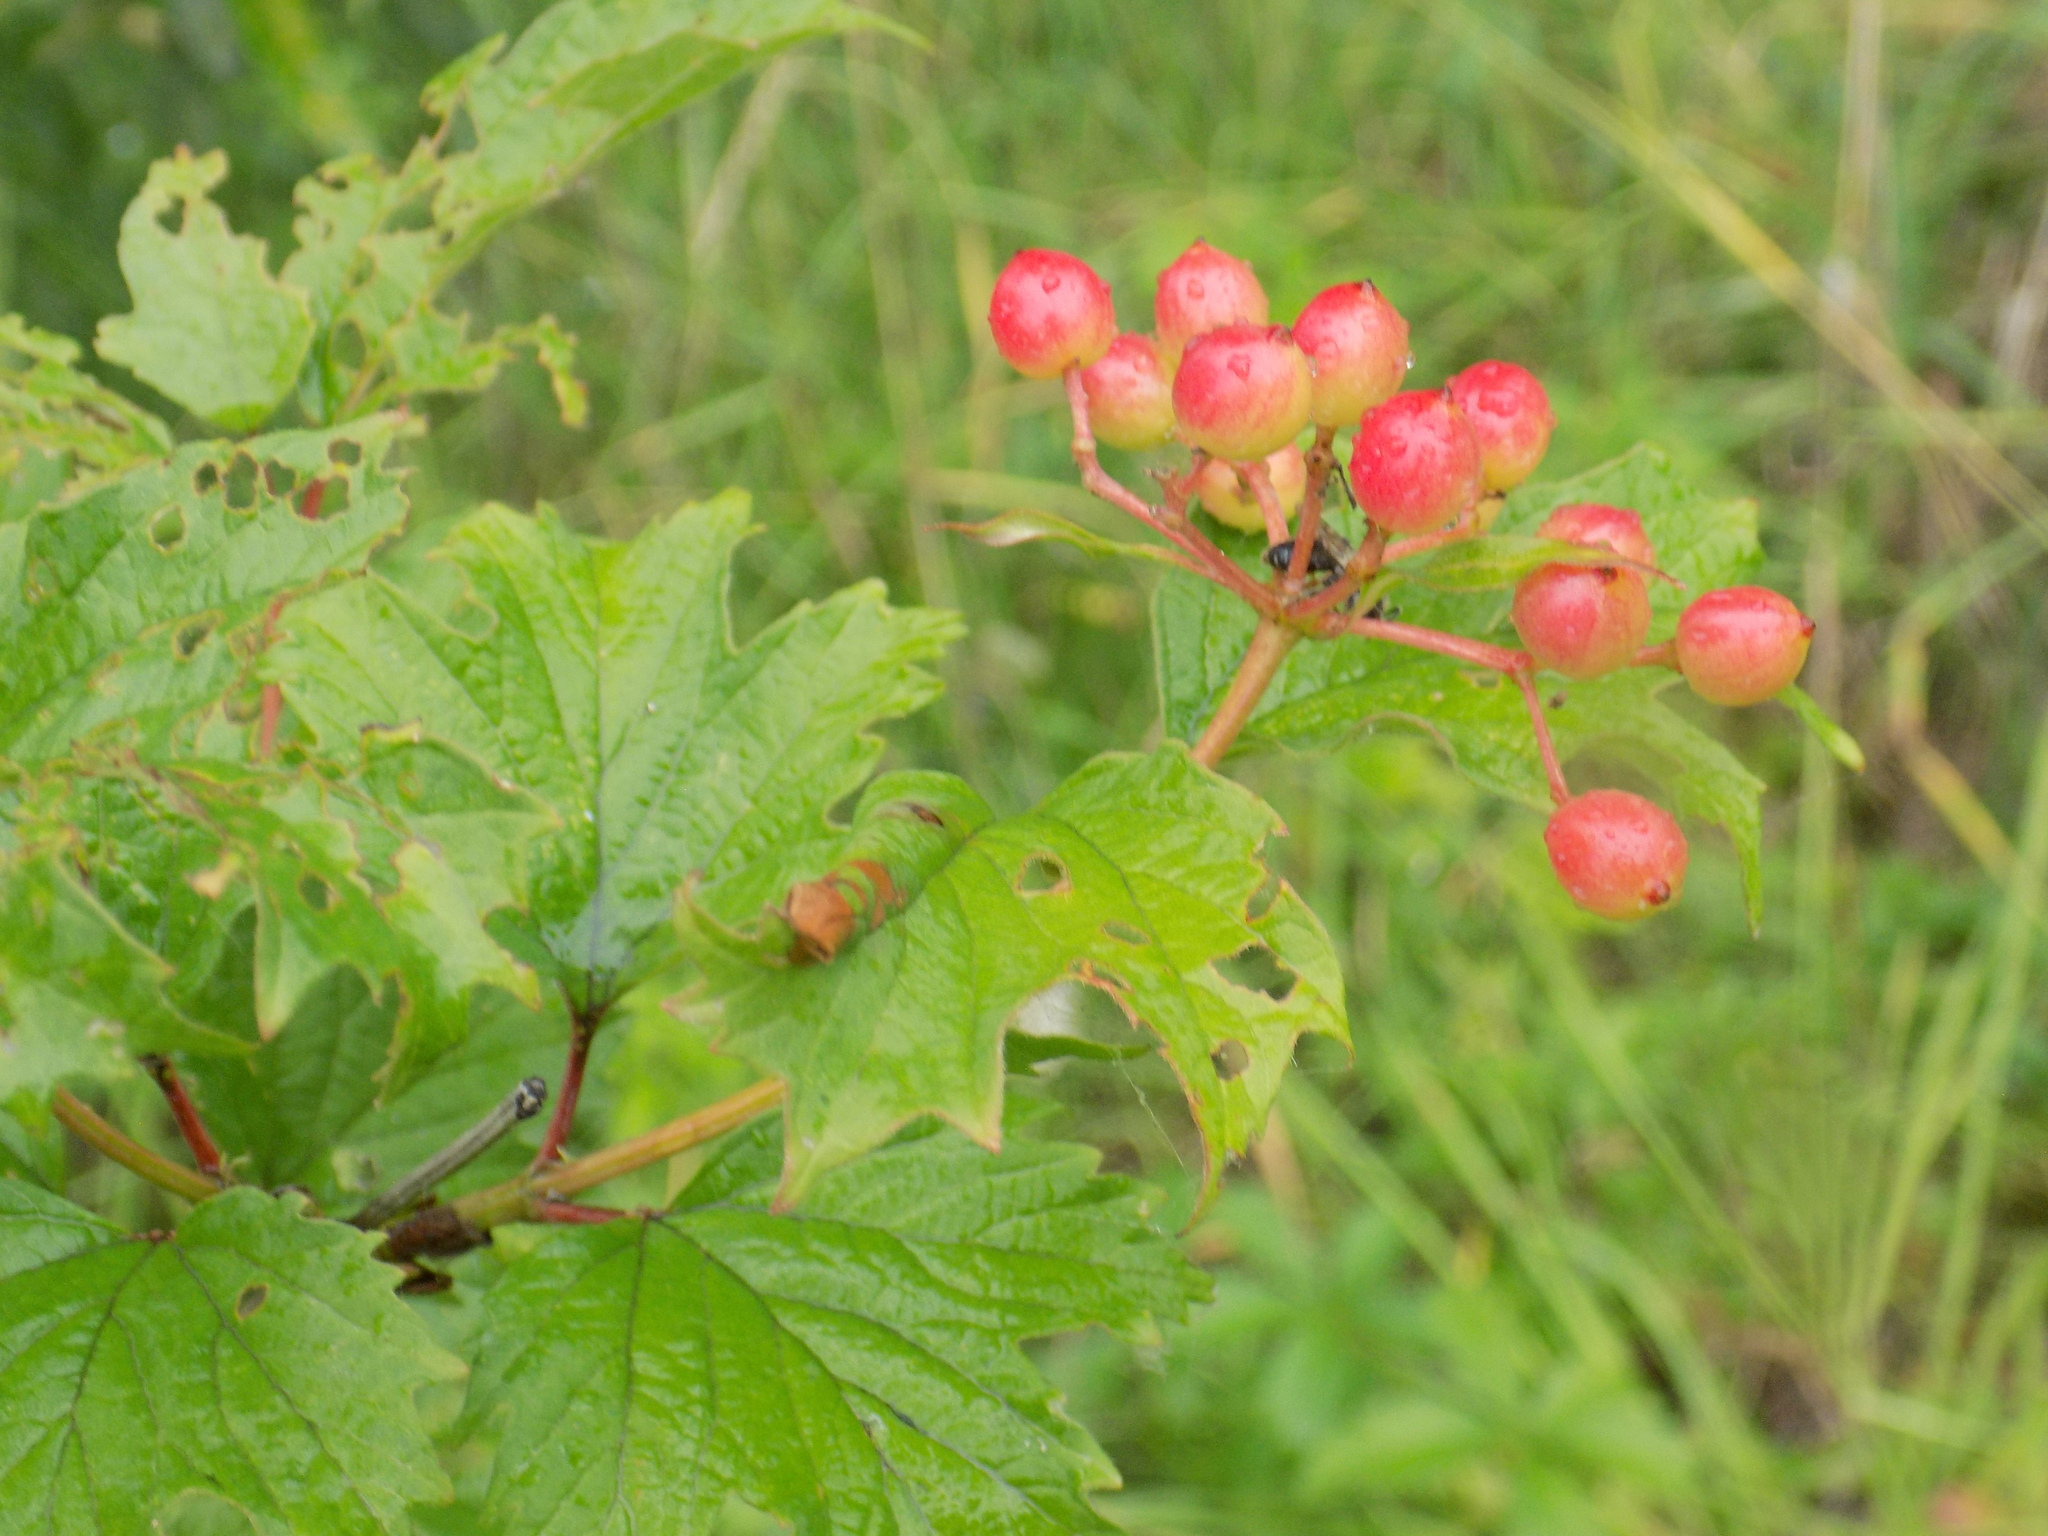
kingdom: Plantae
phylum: Tracheophyta
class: Magnoliopsida
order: Dipsacales
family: Viburnaceae
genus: Viburnum
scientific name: Viburnum opulus
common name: Guelder-rose
